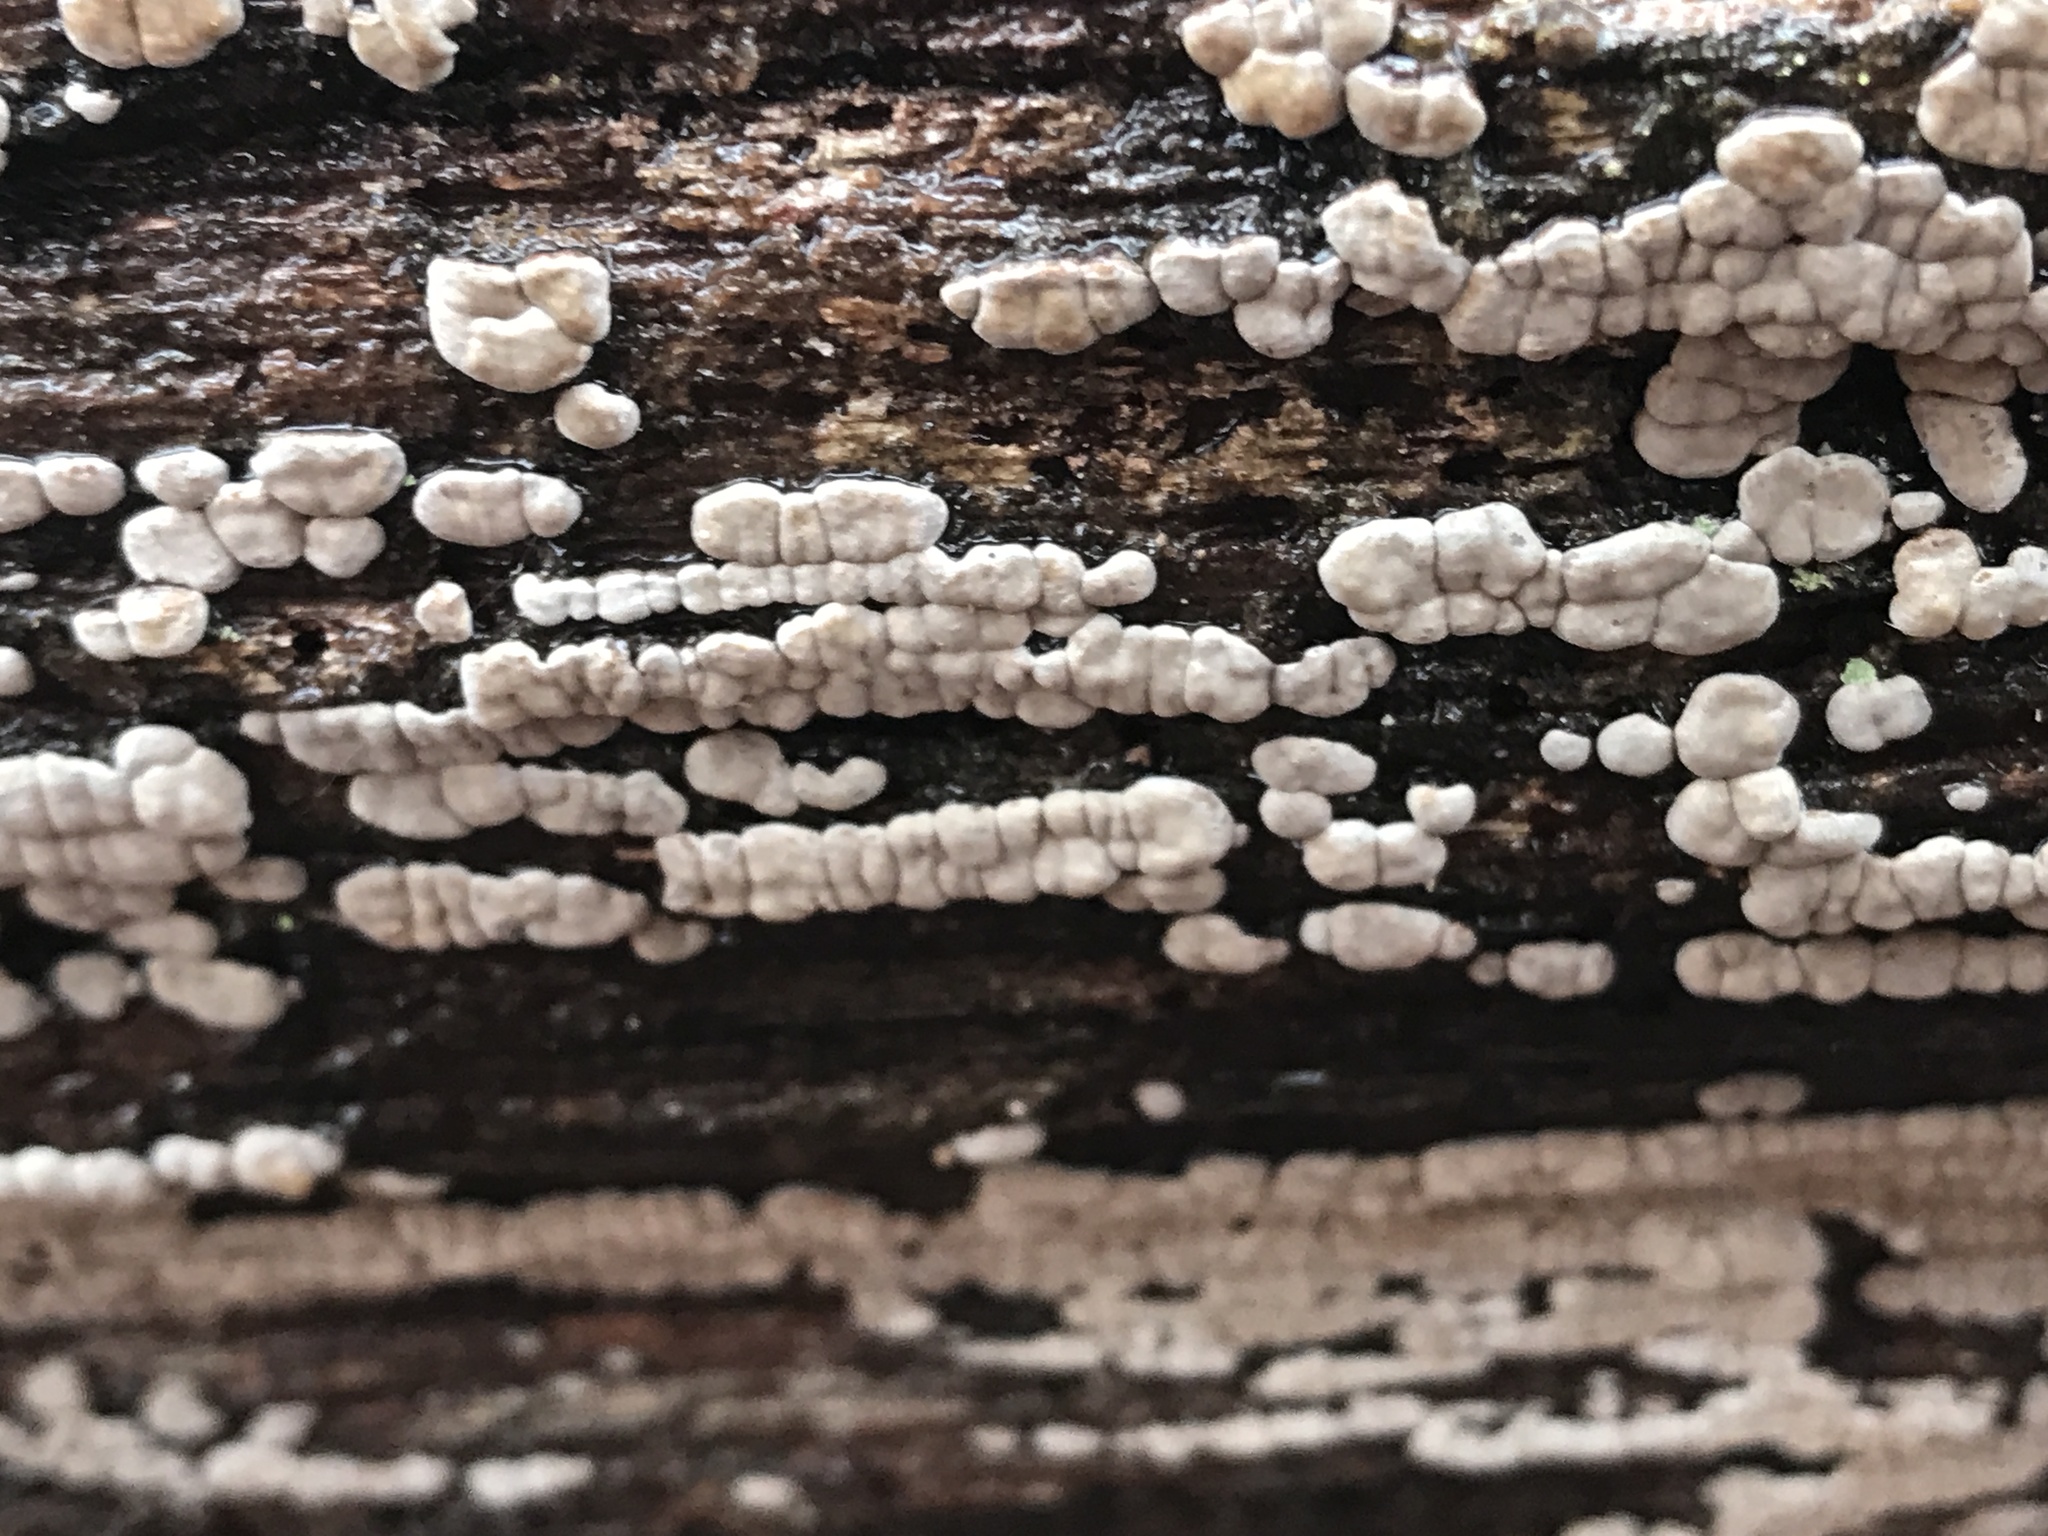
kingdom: Fungi
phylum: Basidiomycota
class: Agaricomycetes
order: Russulales
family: Stereaceae
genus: Xylobolus
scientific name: Xylobolus frustulatus
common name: Ceramic parchment
